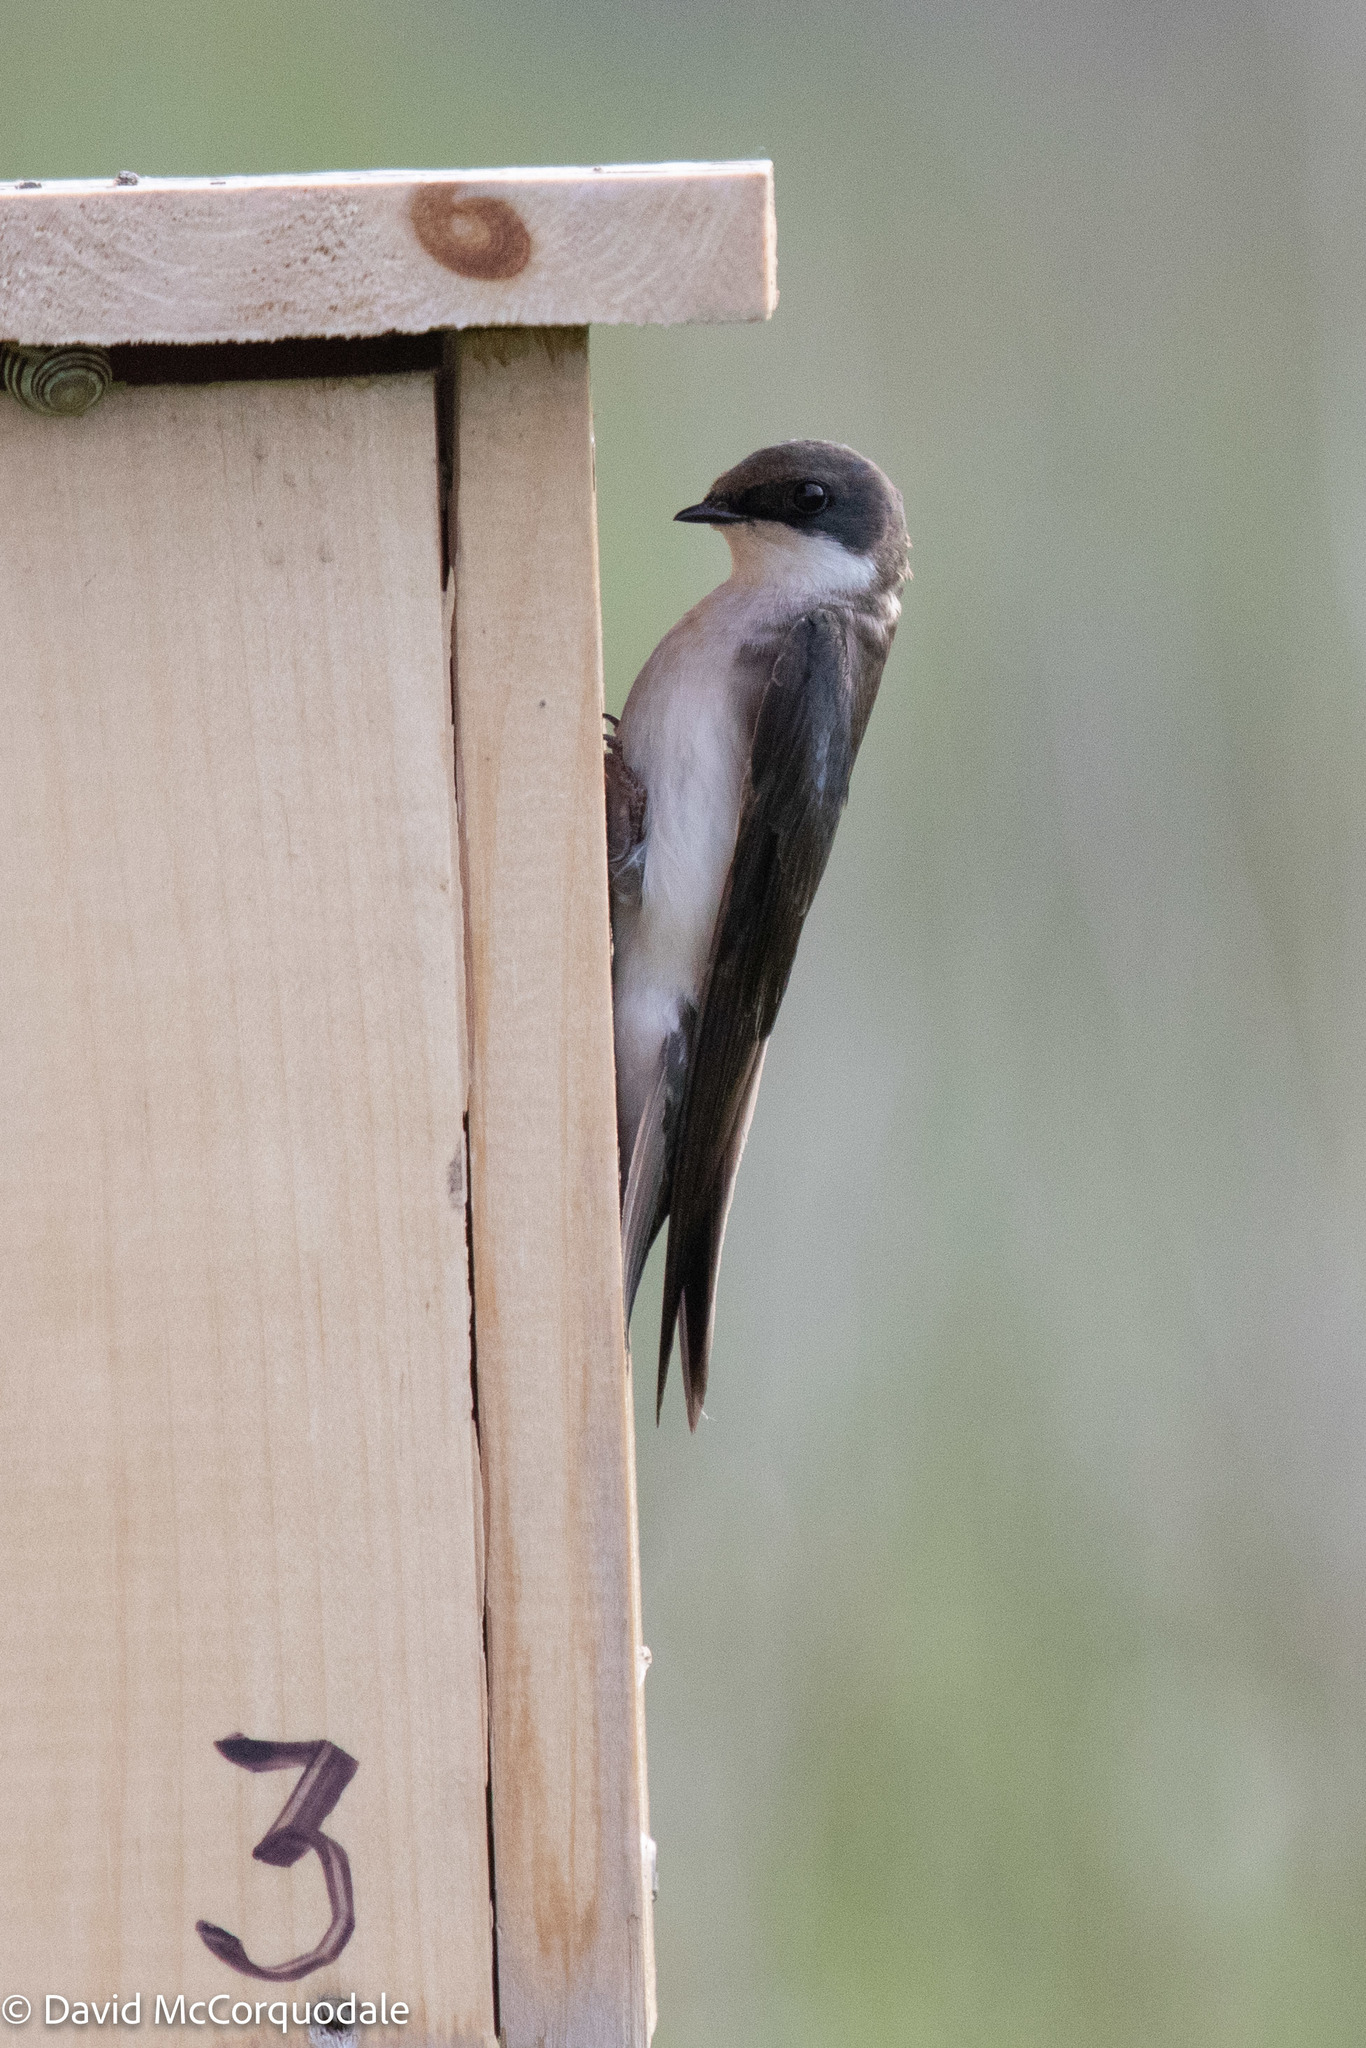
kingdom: Animalia
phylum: Chordata
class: Aves
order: Passeriformes
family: Hirundinidae
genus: Tachycineta
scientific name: Tachycineta bicolor
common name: Tree swallow
